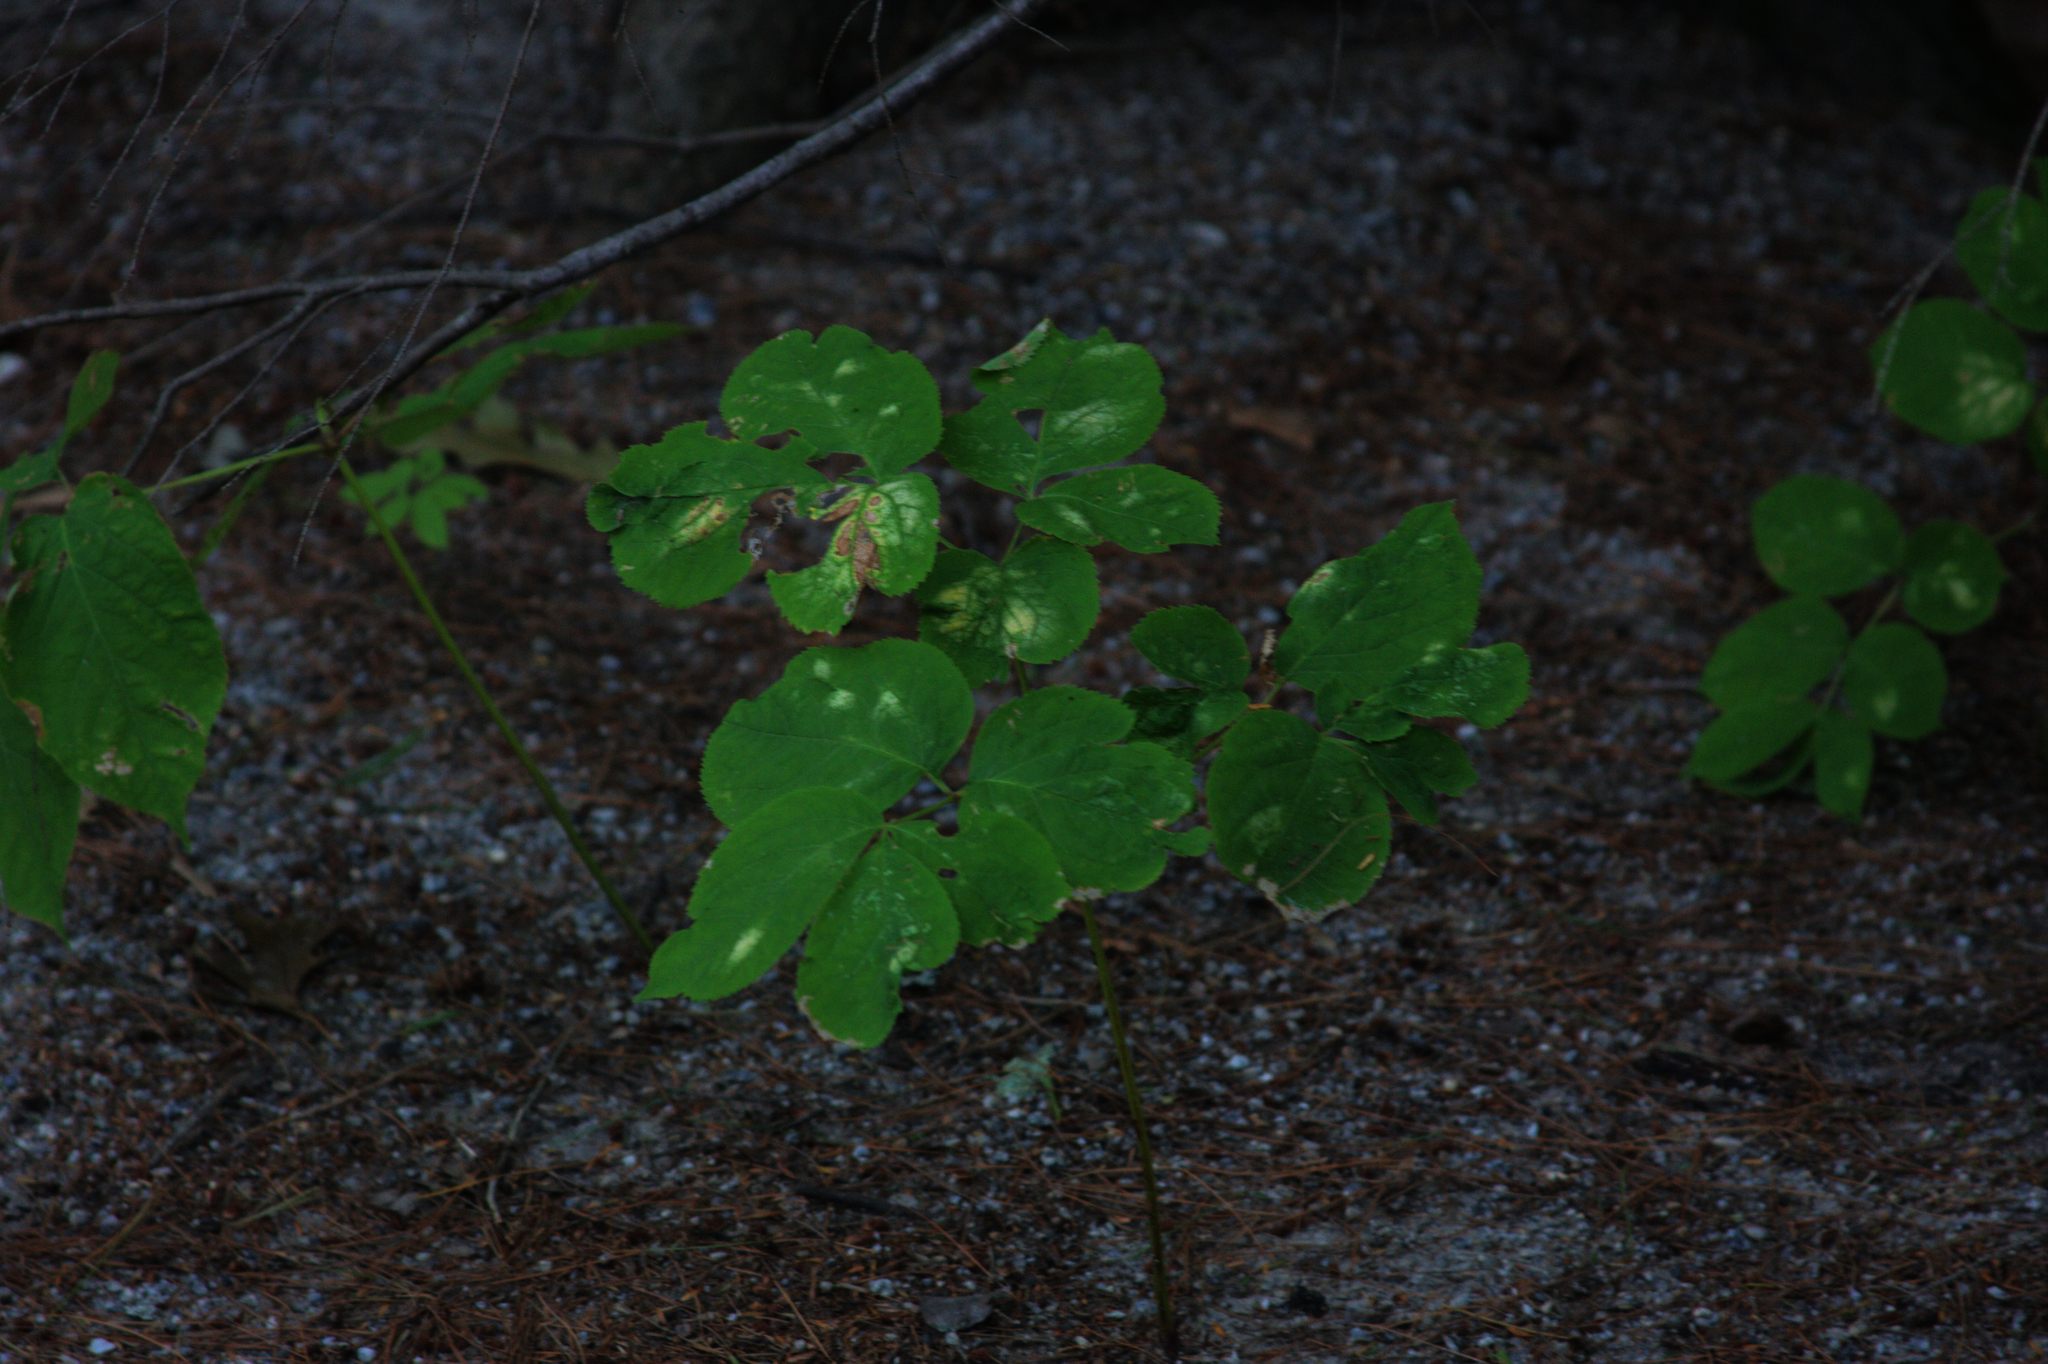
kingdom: Plantae
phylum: Tracheophyta
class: Magnoliopsida
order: Apiales
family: Araliaceae
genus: Aralia
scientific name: Aralia nudicaulis
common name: Wild sarsaparilla
